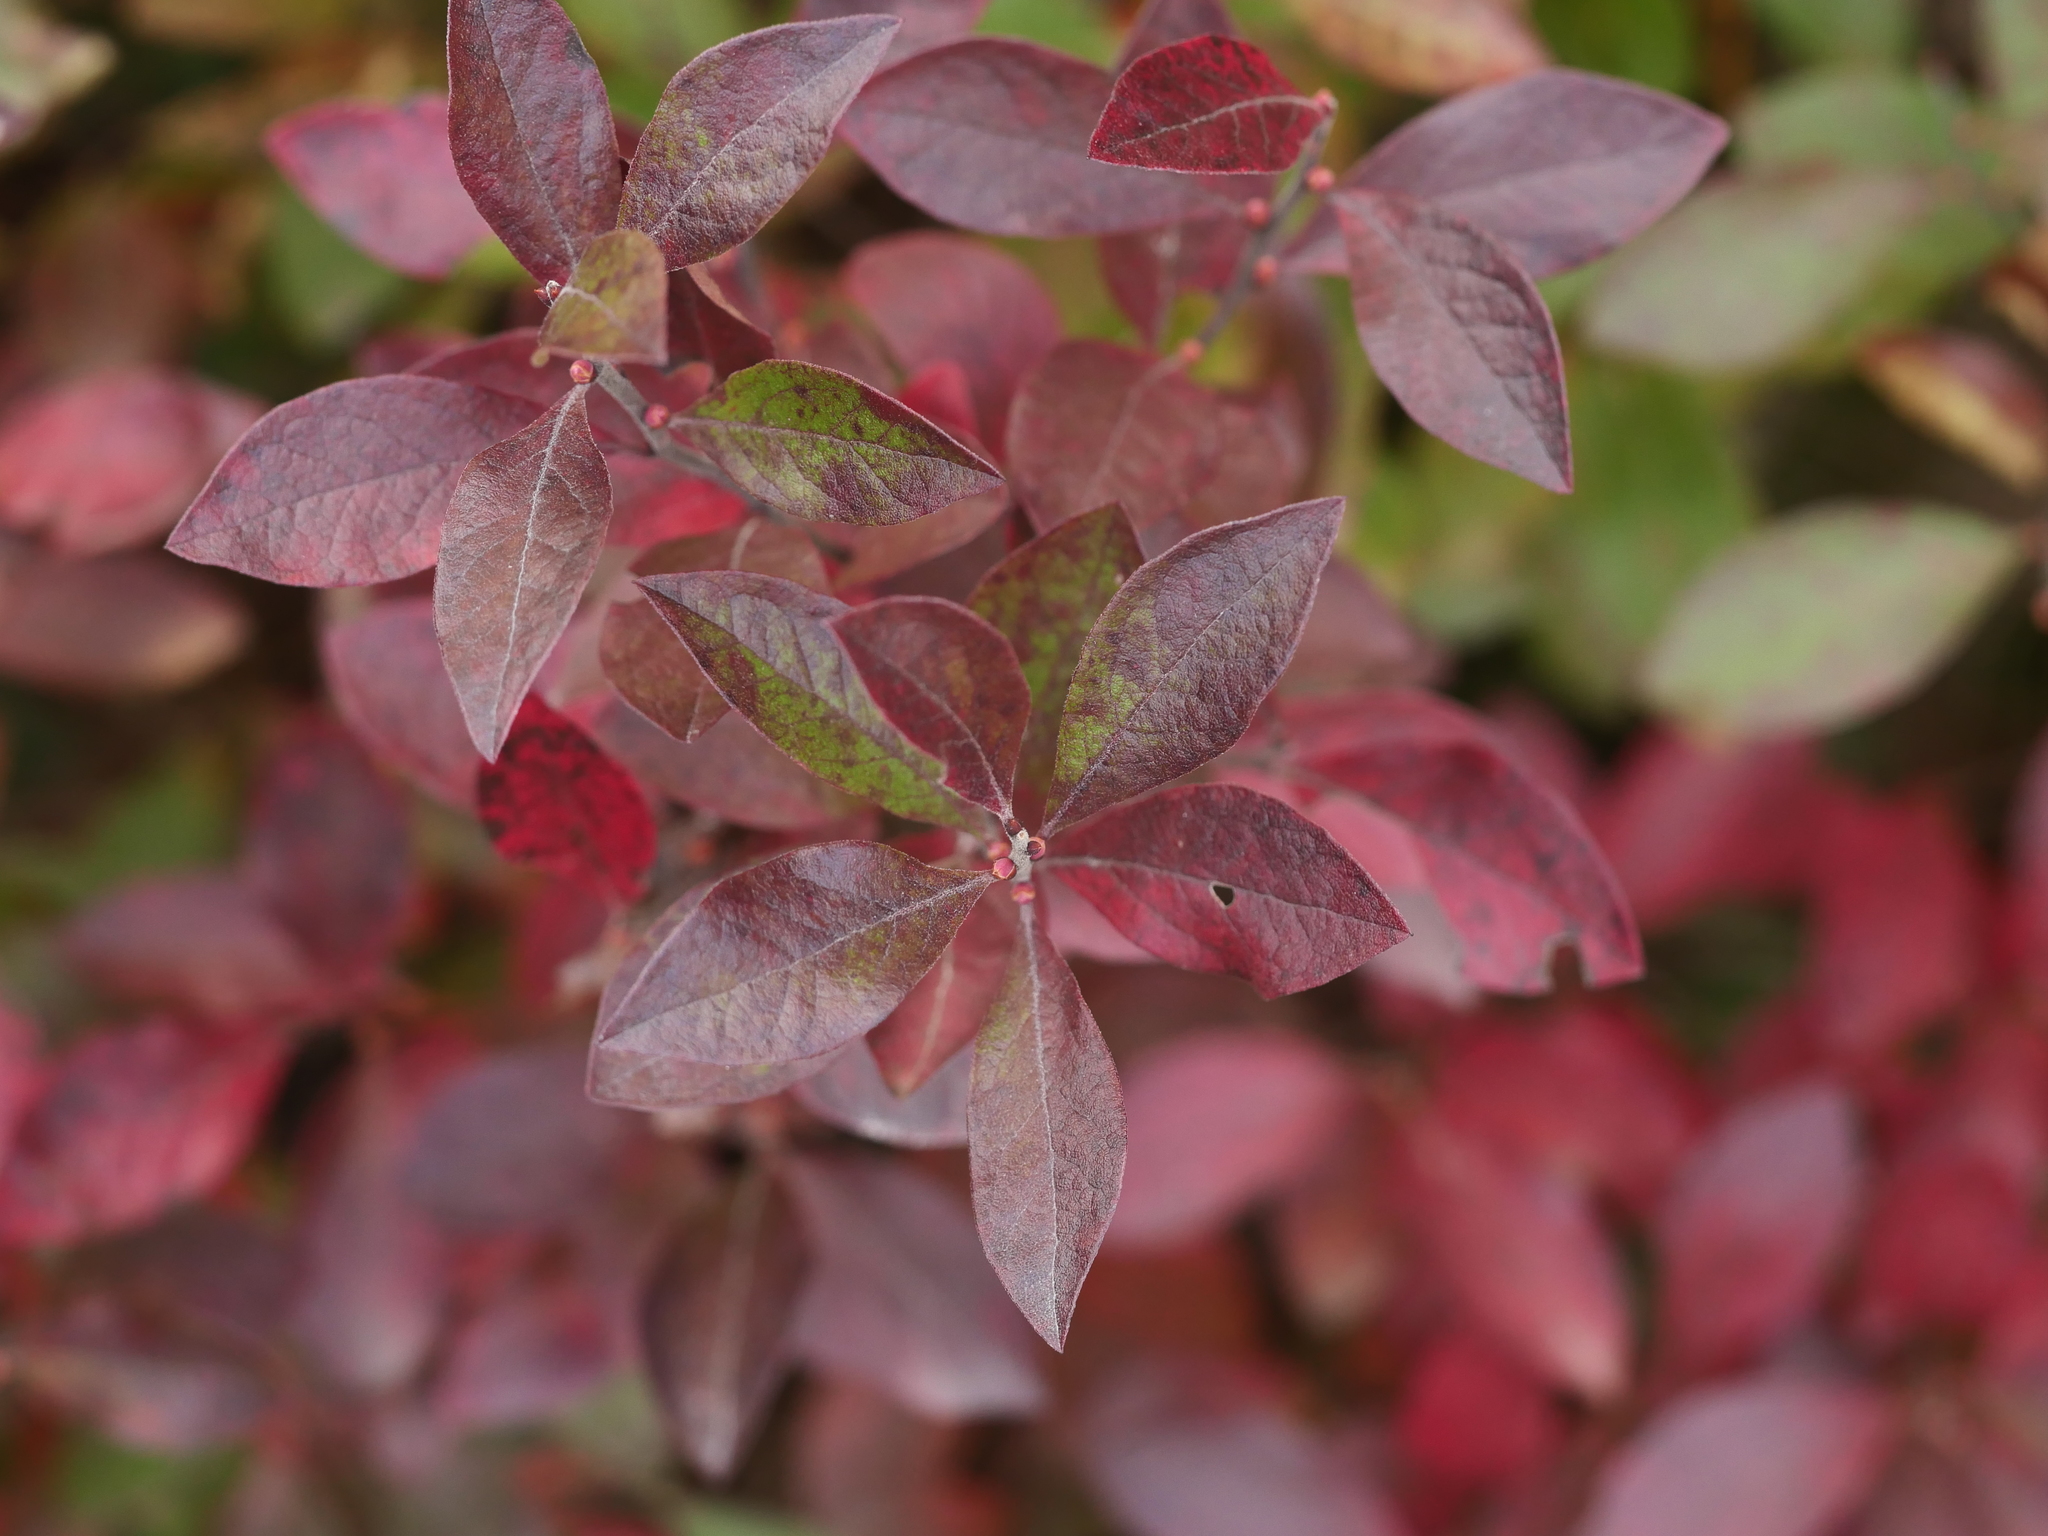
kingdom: Plantae
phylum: Tracheophyta
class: Magnoliopsida
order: Ericales
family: Ericaceae
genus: Gaylussacia
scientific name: Gaylussacia baccata
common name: Black huckleberry
